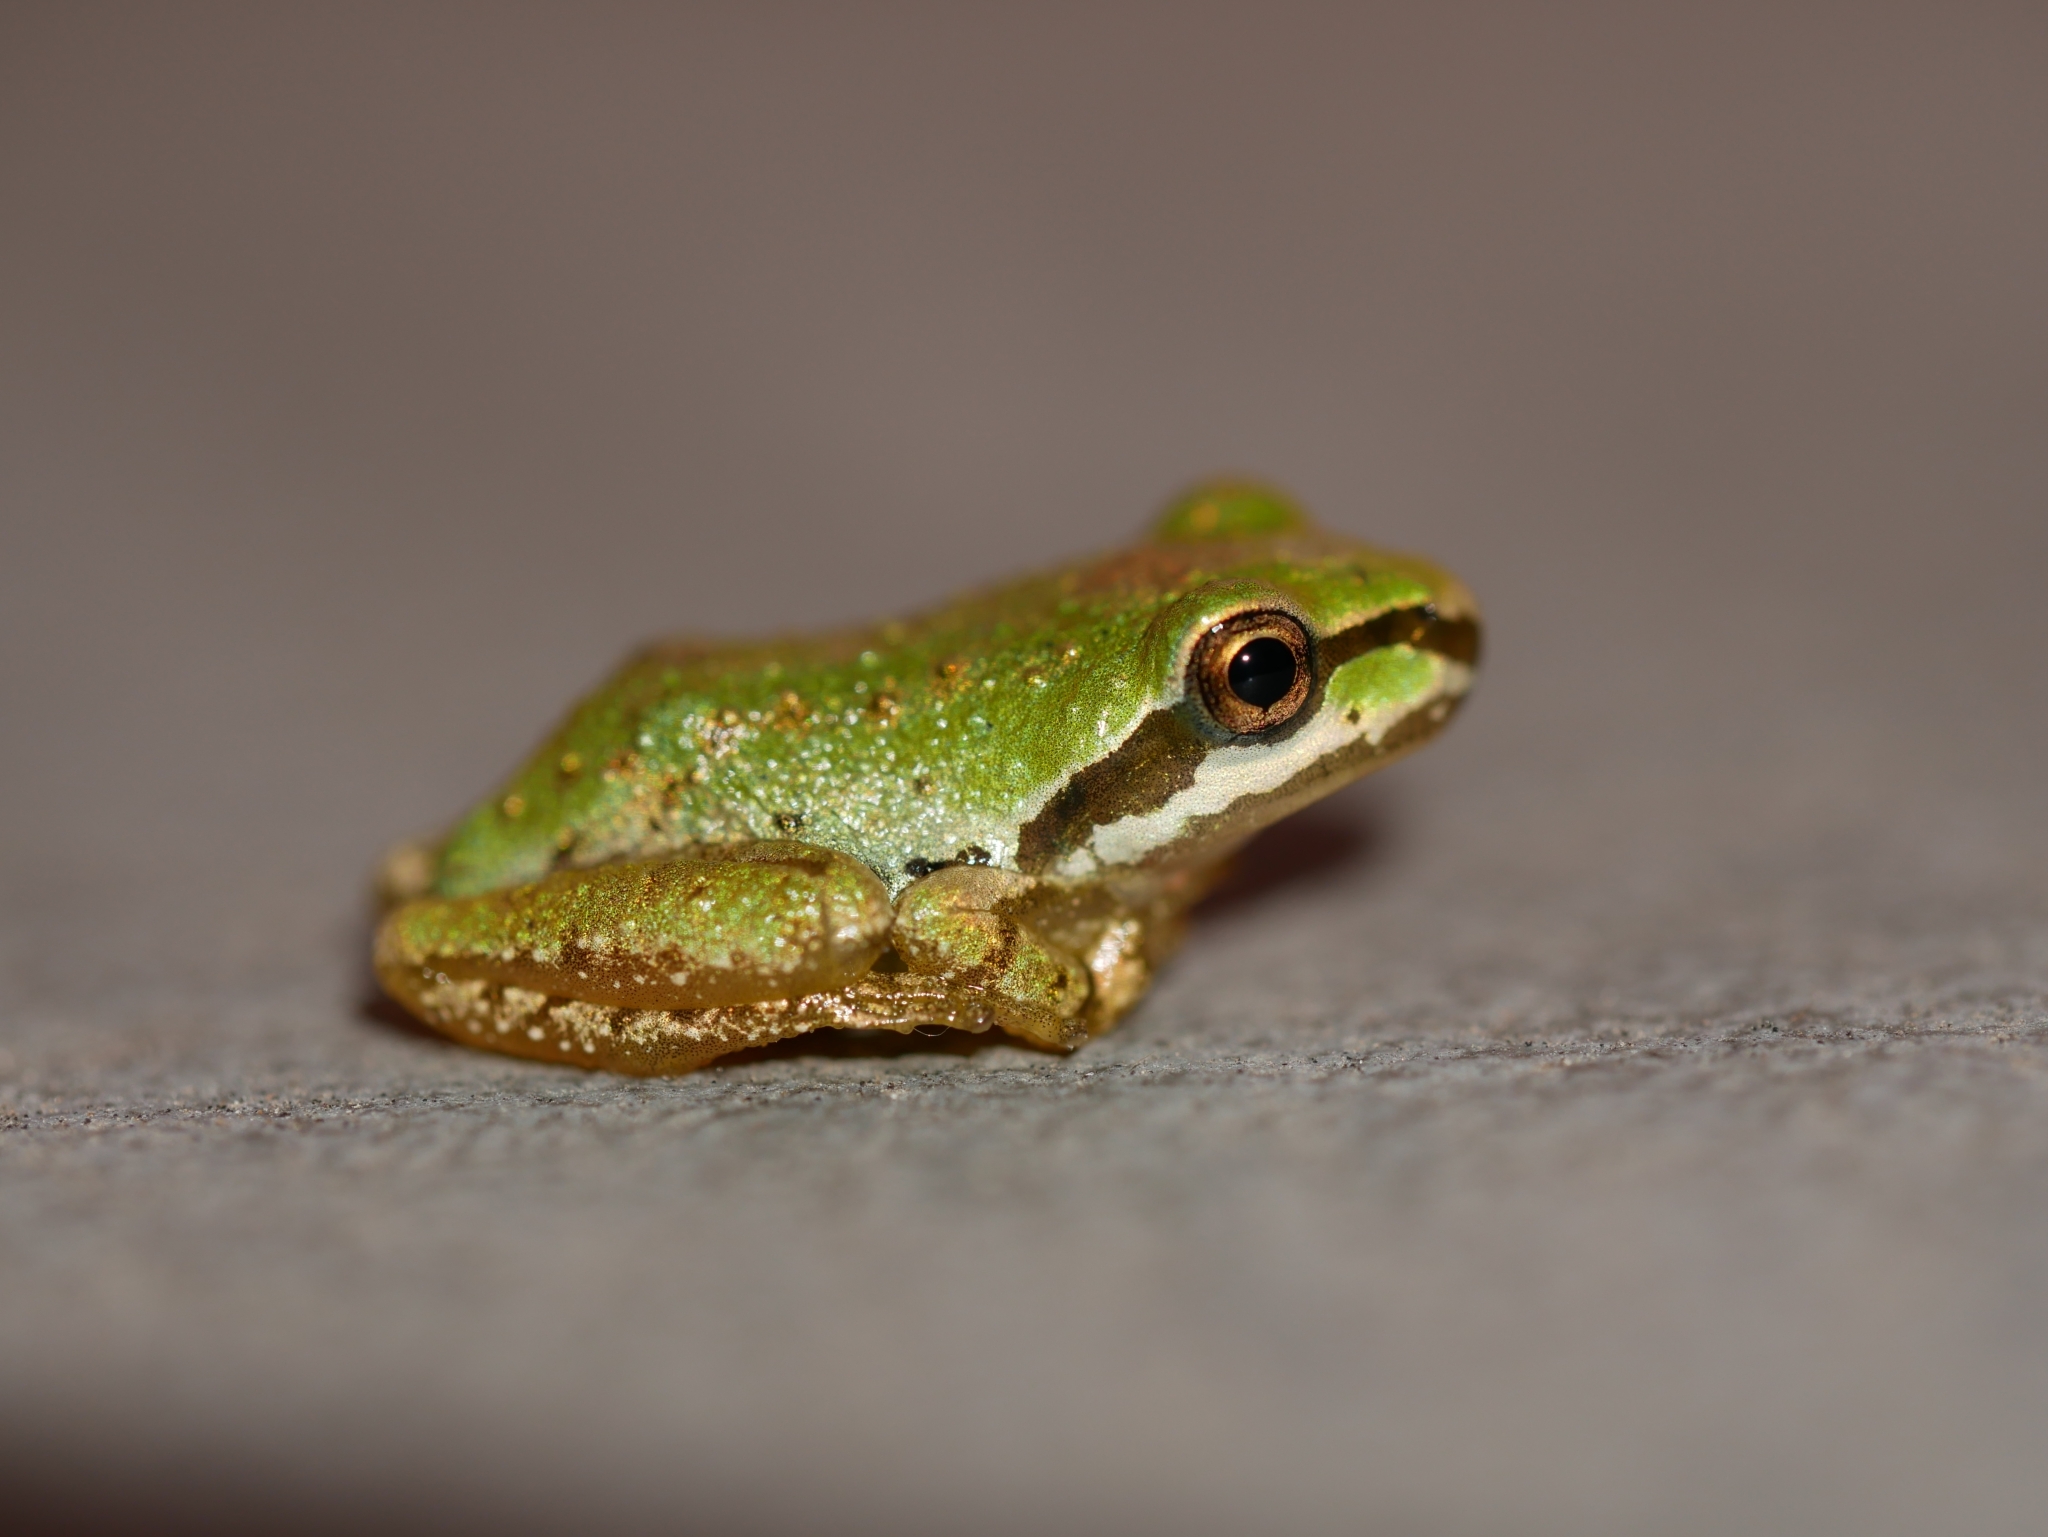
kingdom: Animalia
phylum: Chordata
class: Amphibia
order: Anura
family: Hylidae
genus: Pseudacris
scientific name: Pseudacris regilla
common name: Pacific chorus frog
